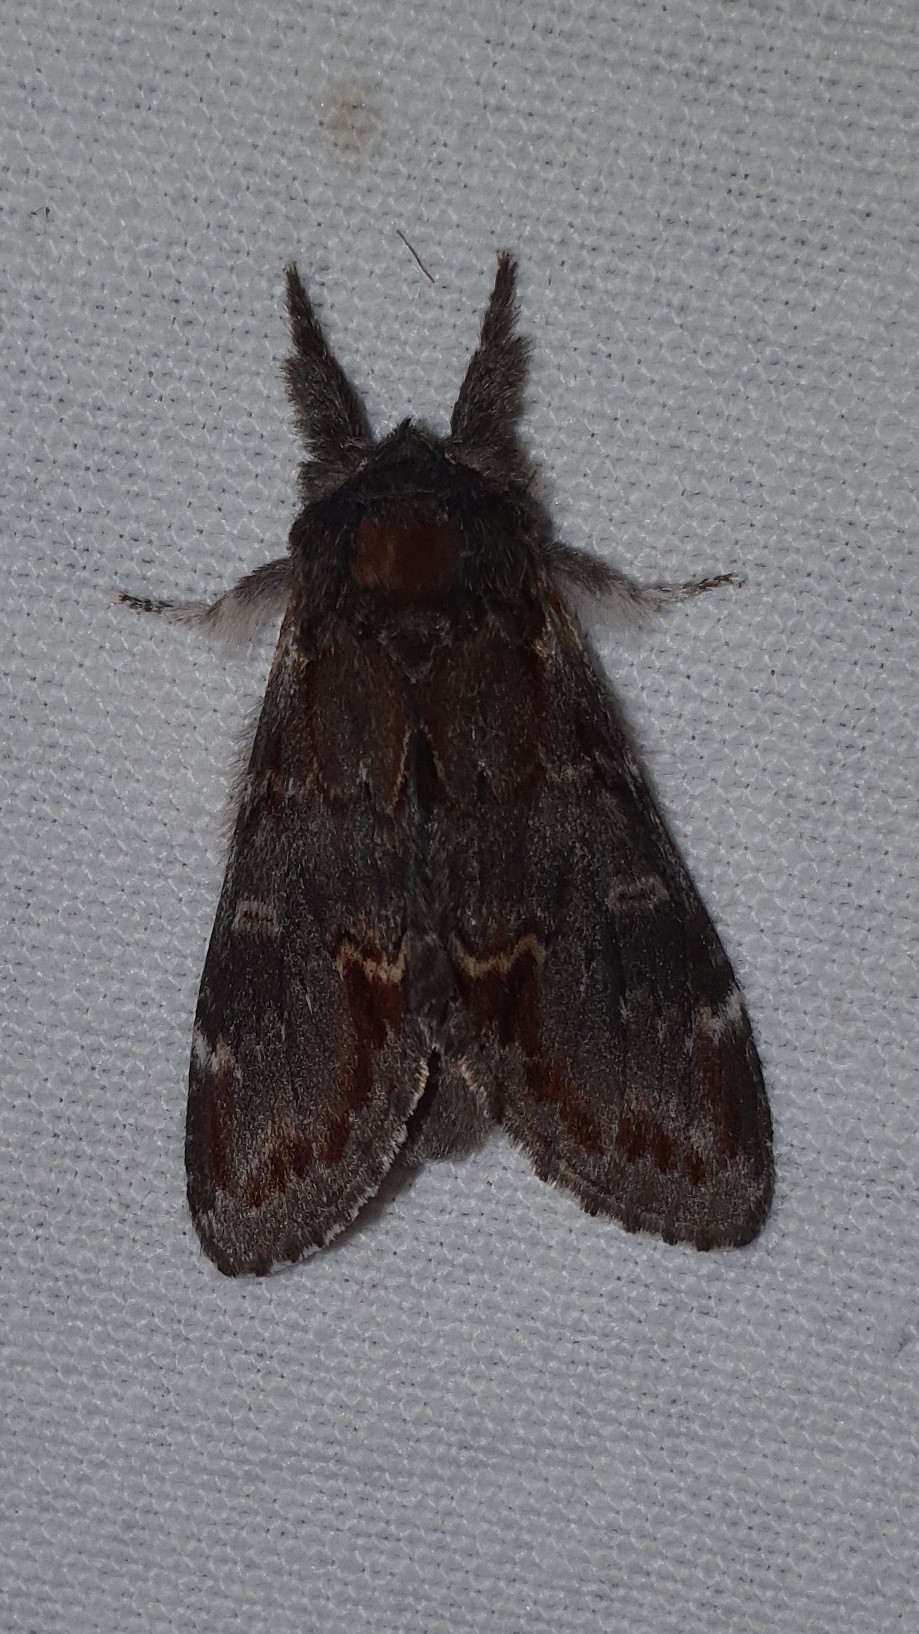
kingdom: Animalia
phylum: Arthropoda
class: Insecta
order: Lepidoptera
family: Notodontidae
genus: Notodonta
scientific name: Notodonta dromedarius
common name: Iron prominent
